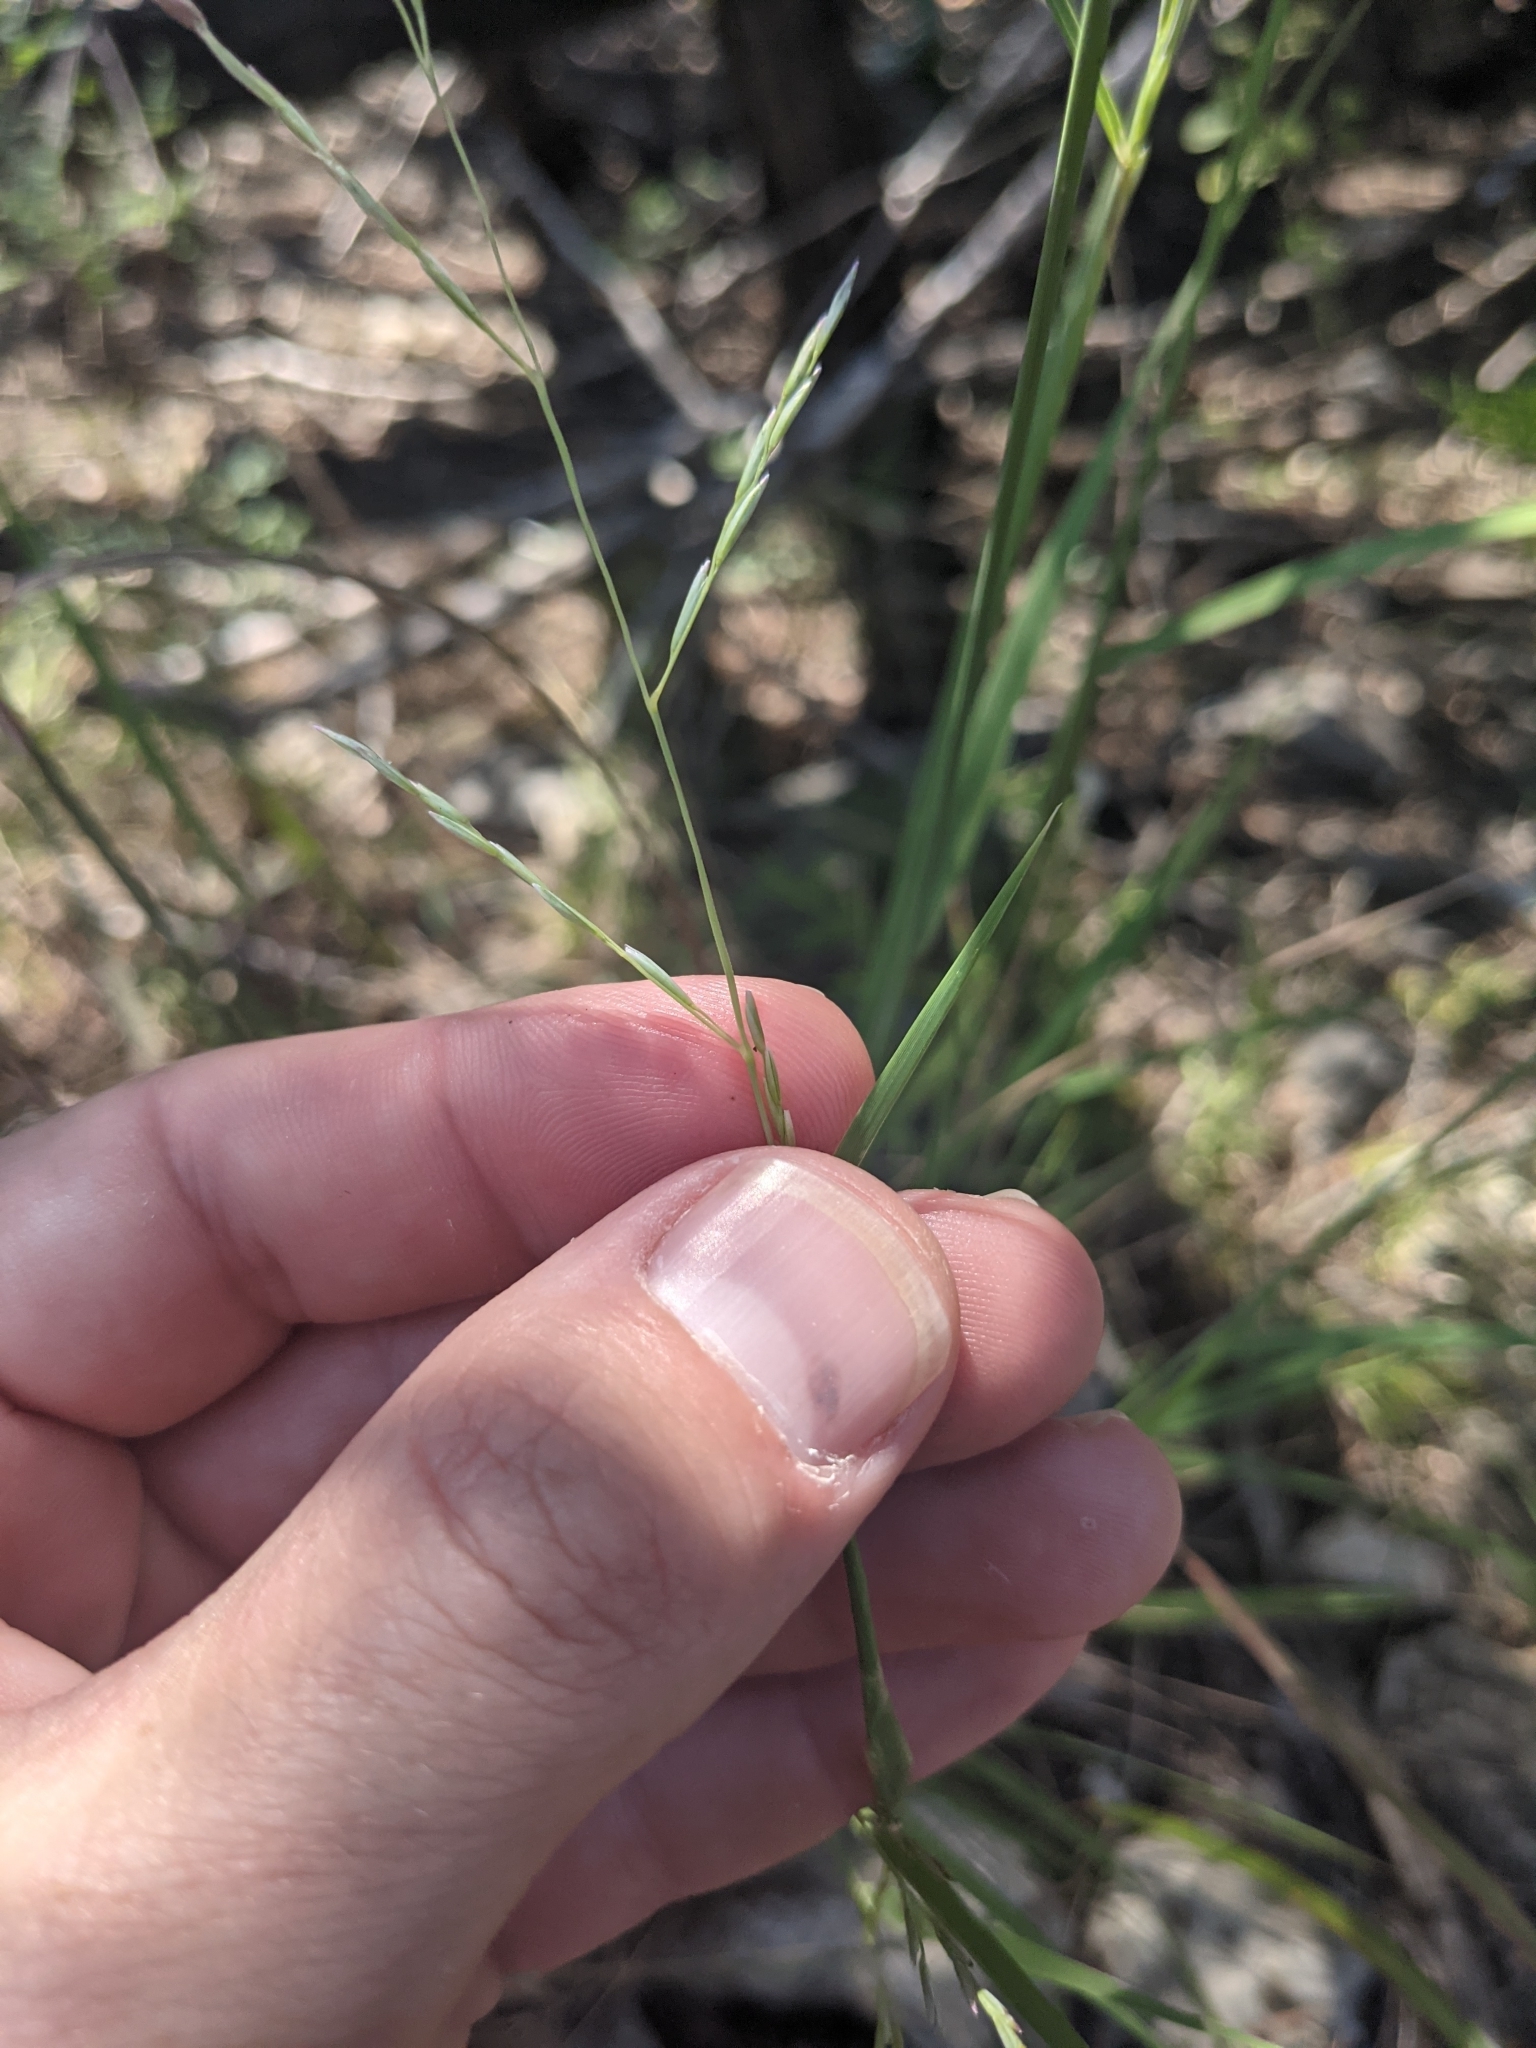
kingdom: Plantae
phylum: Tracheophyta
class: Liliopsida
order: Poales
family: Poaceae
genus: Tridentopsis
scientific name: Tridentopsis buckleyana
